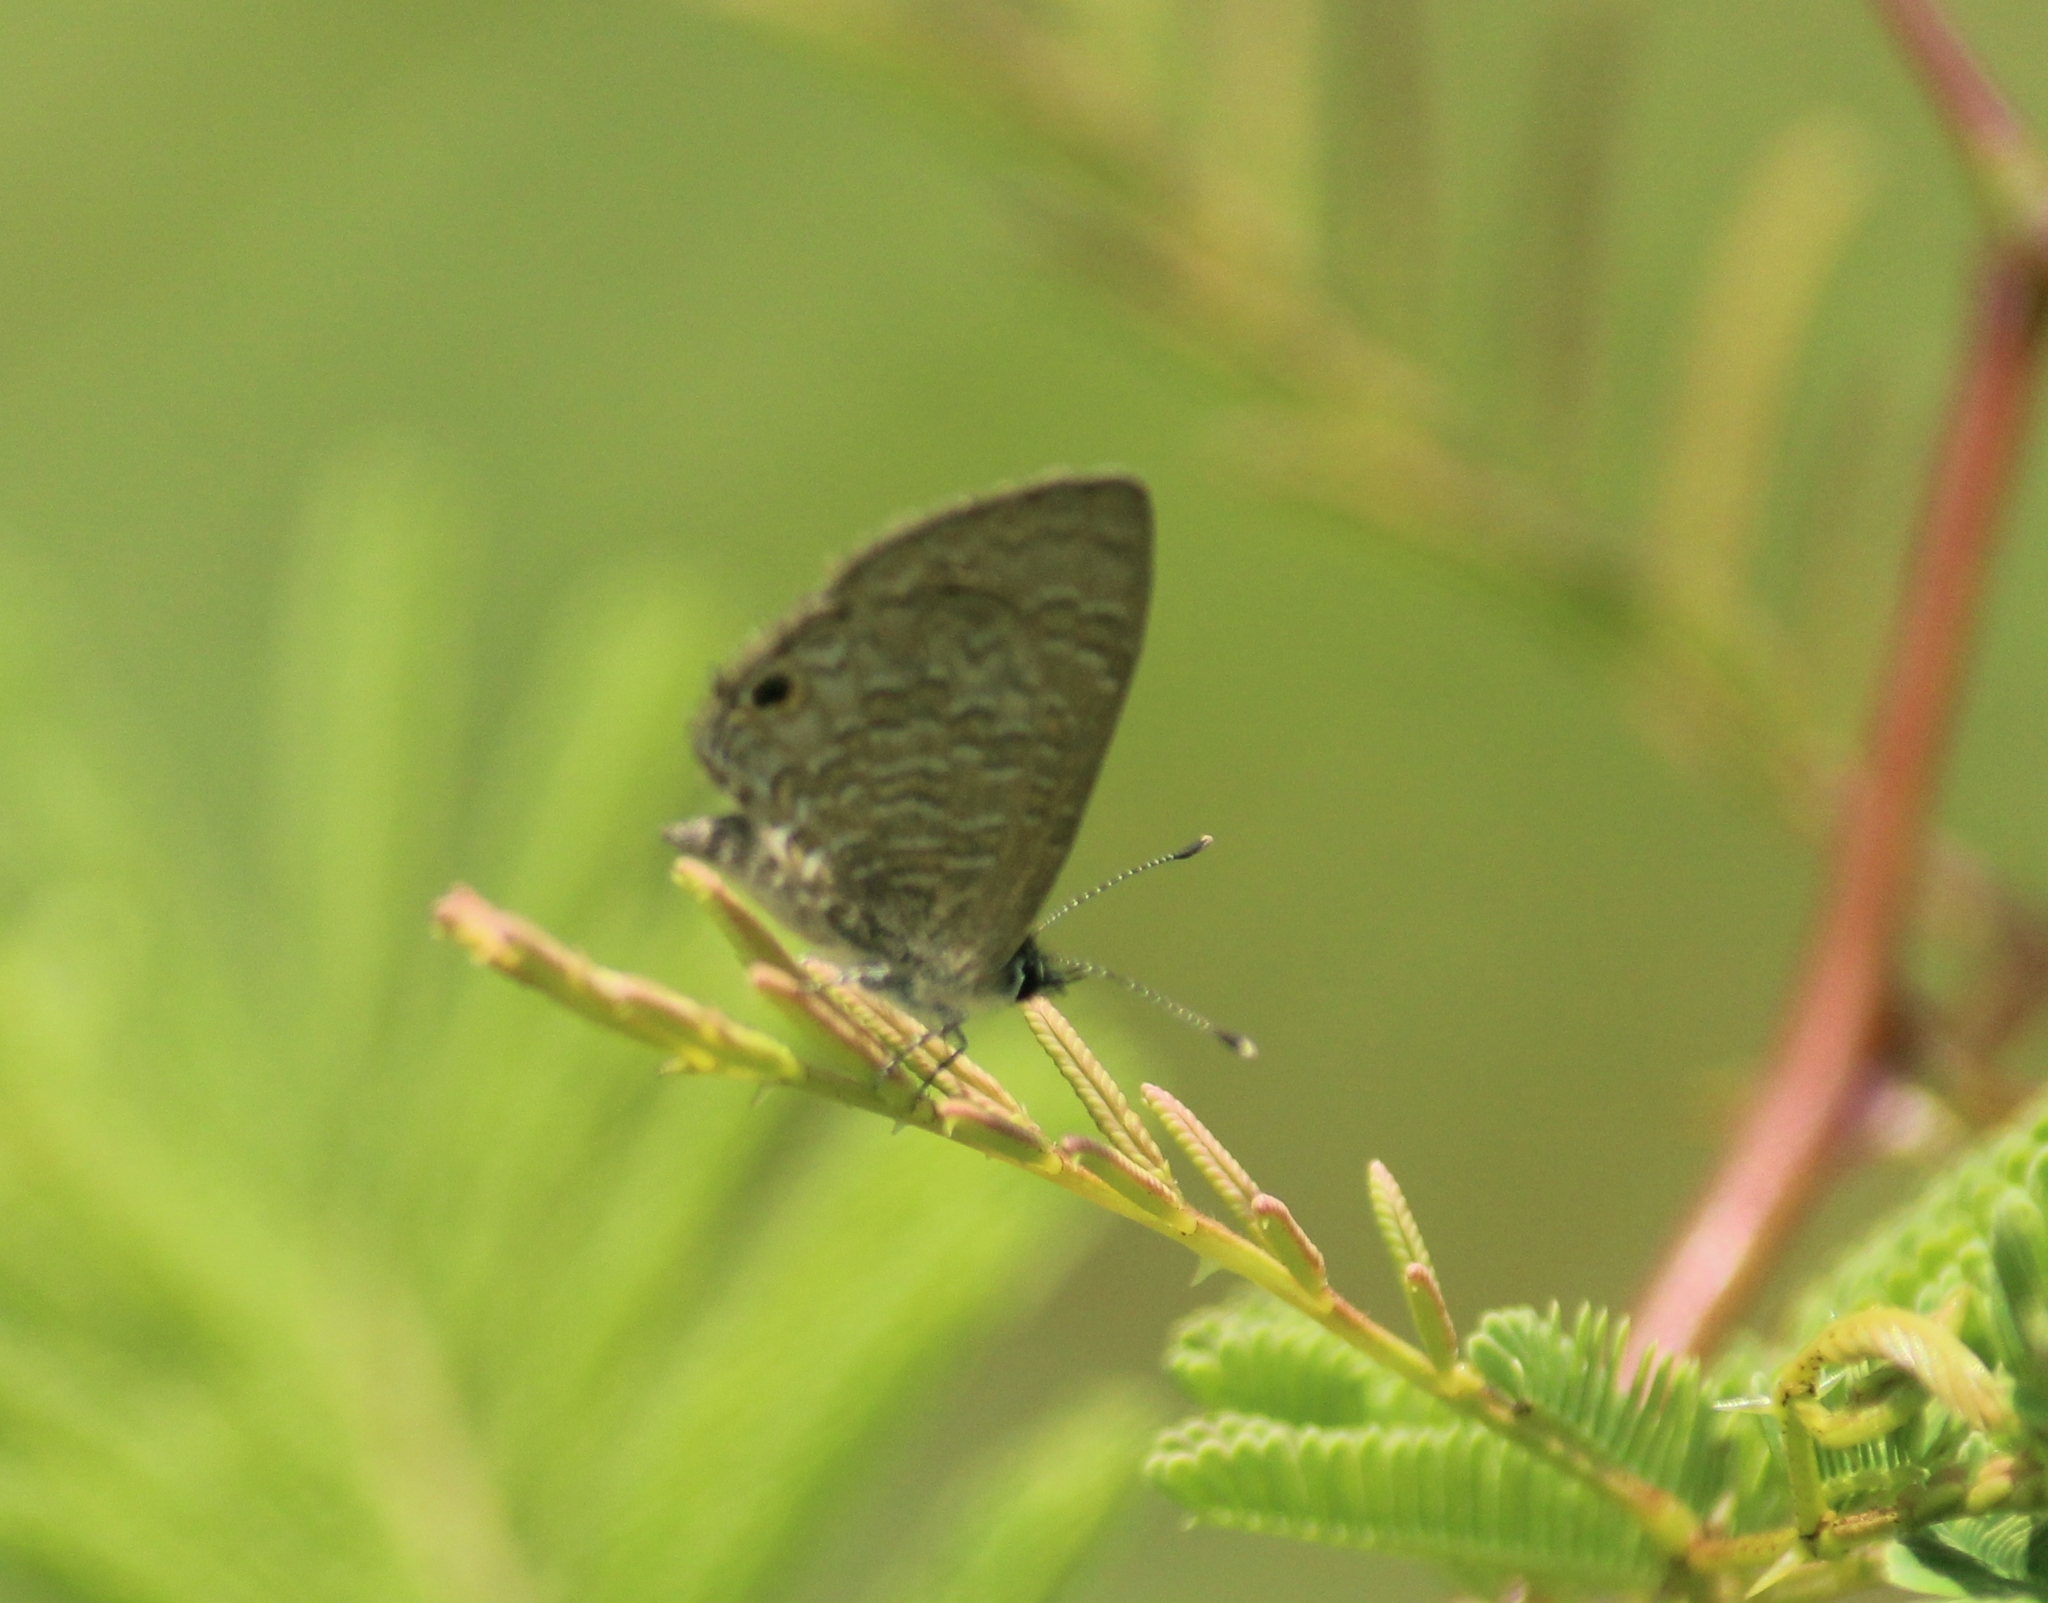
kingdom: Animalia
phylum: Arthropoda
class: Insecta
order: Lepidoptera
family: Lycaenidae
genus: Prosotas
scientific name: Prosotas dubiosa
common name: Tailless lineblue
